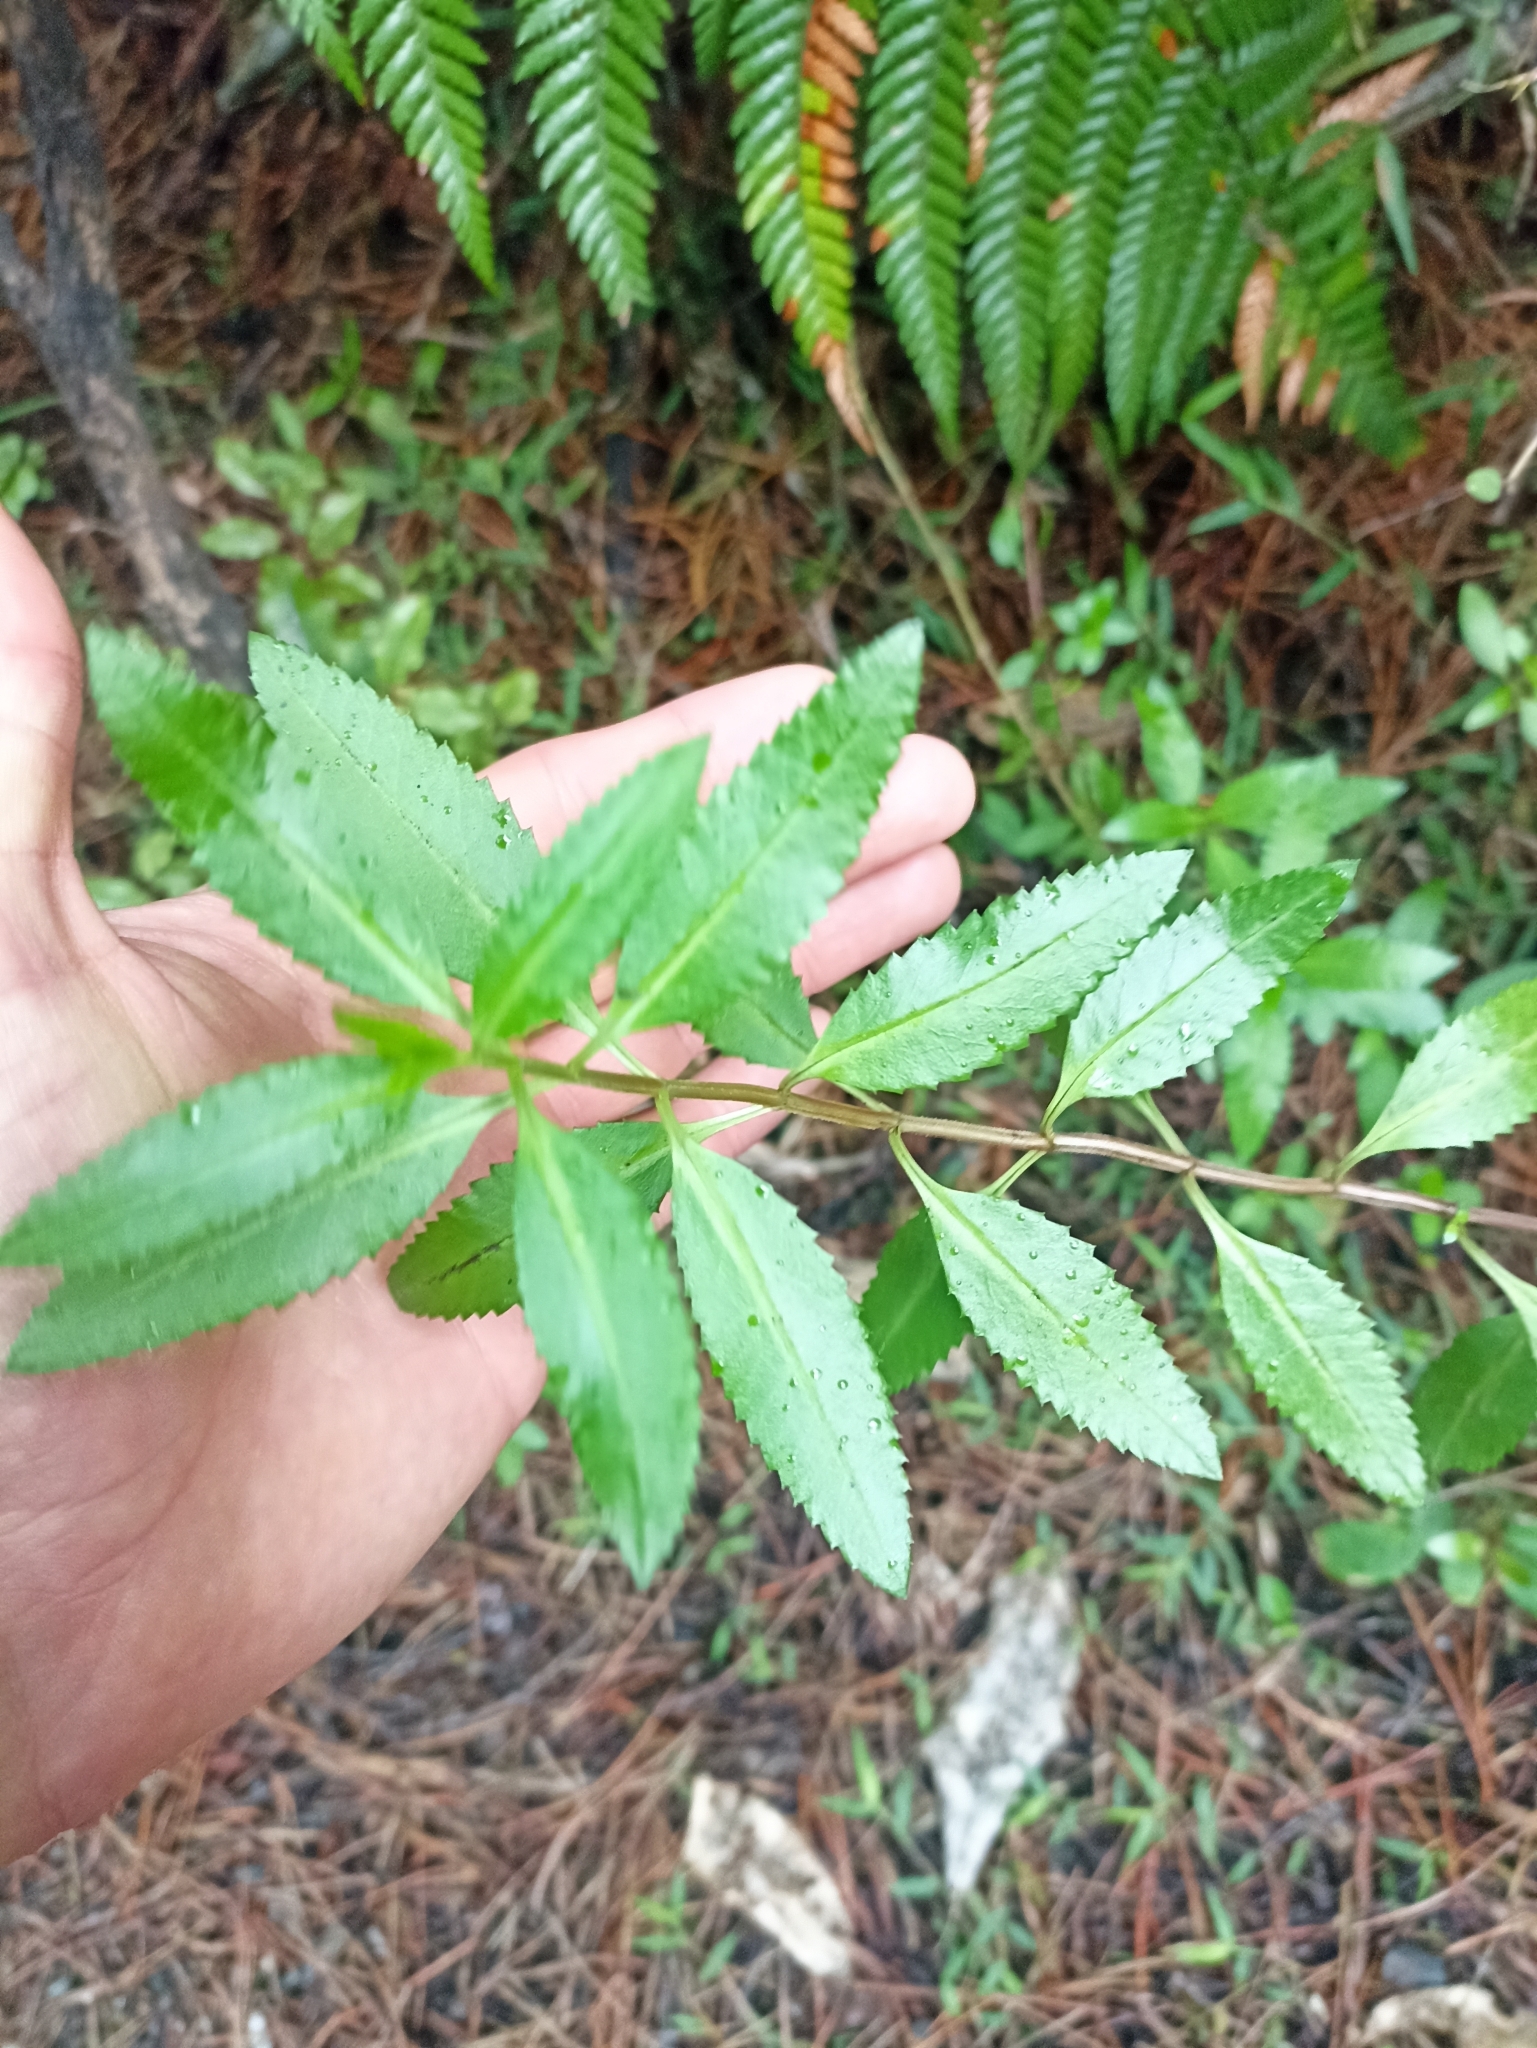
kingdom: Plantae
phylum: Tracheophyta
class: Magnoliopsida
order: Saxifragales
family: Haloragaceae
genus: Haloragis
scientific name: Haloragis erecta
